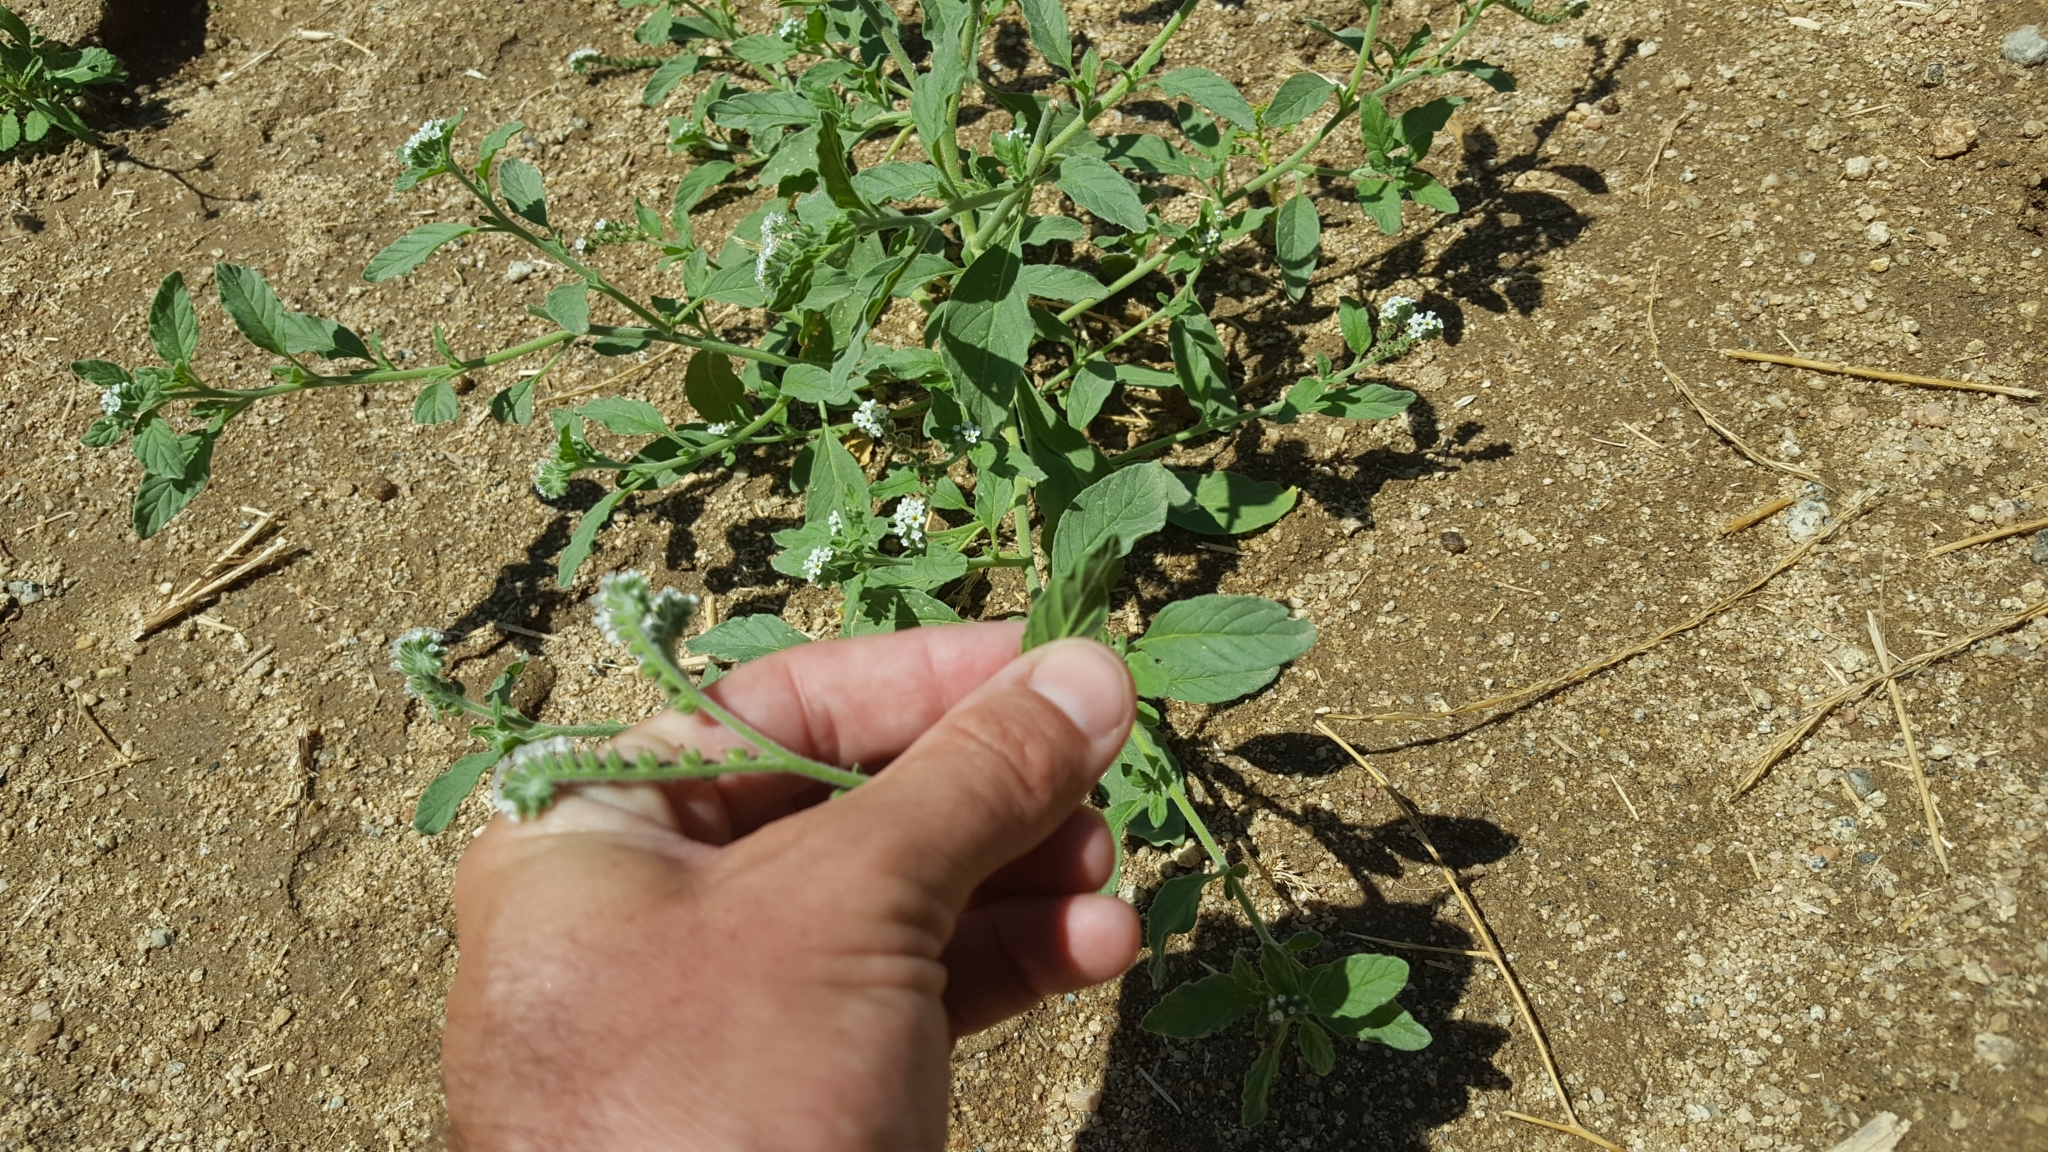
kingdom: Plantae
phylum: Tracheophyta
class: Magnoliopsida
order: Boraginales
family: Heliotropiaceae
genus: Heliotropium
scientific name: Heliotropium europaeum
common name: European heliotrope
